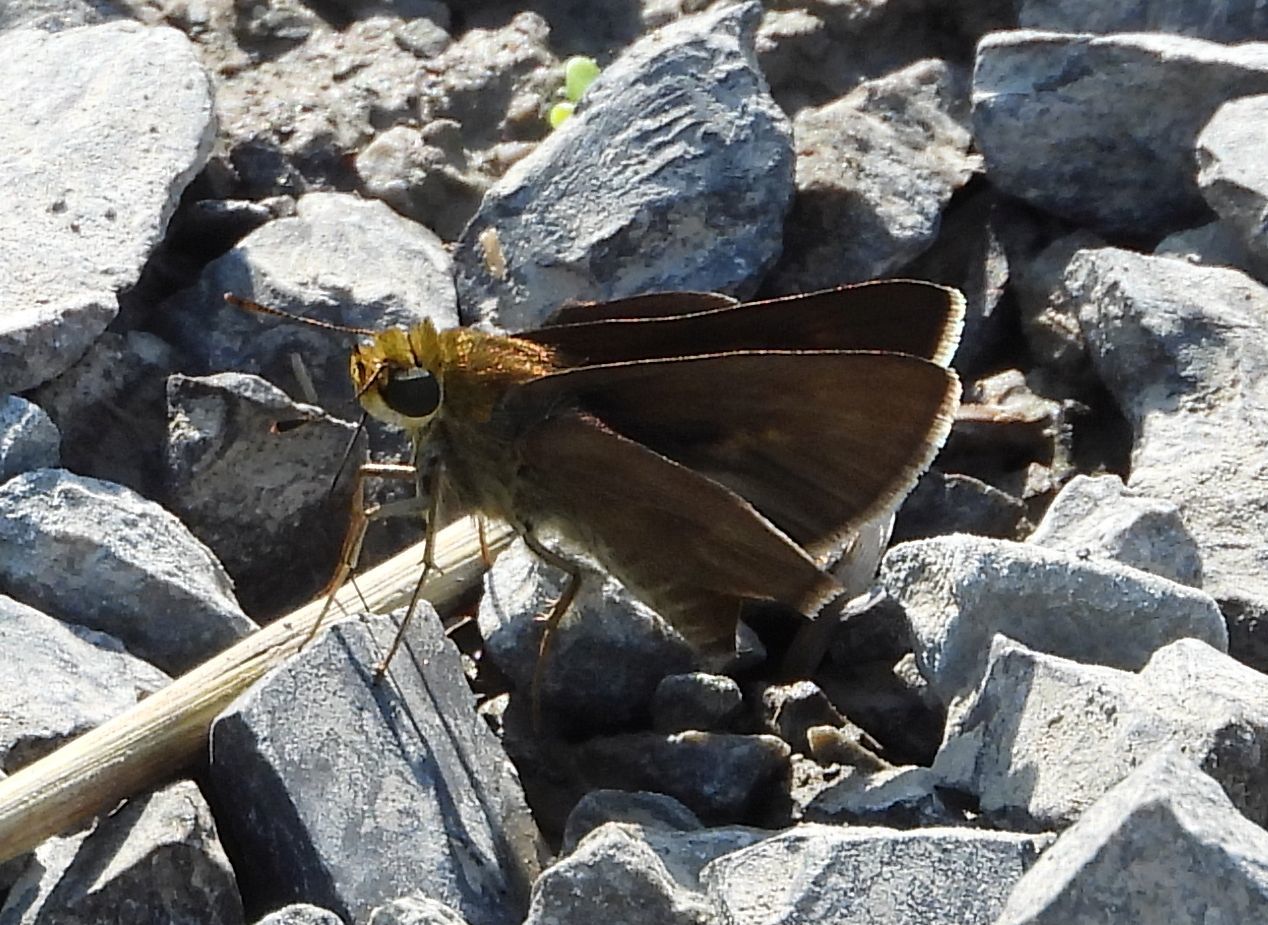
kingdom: Animalia
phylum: Arthropoda
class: Insecta
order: Lepidoptera
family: Hesperiidae
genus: Euphyes
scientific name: Euphyes vestris
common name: Dun skipper
